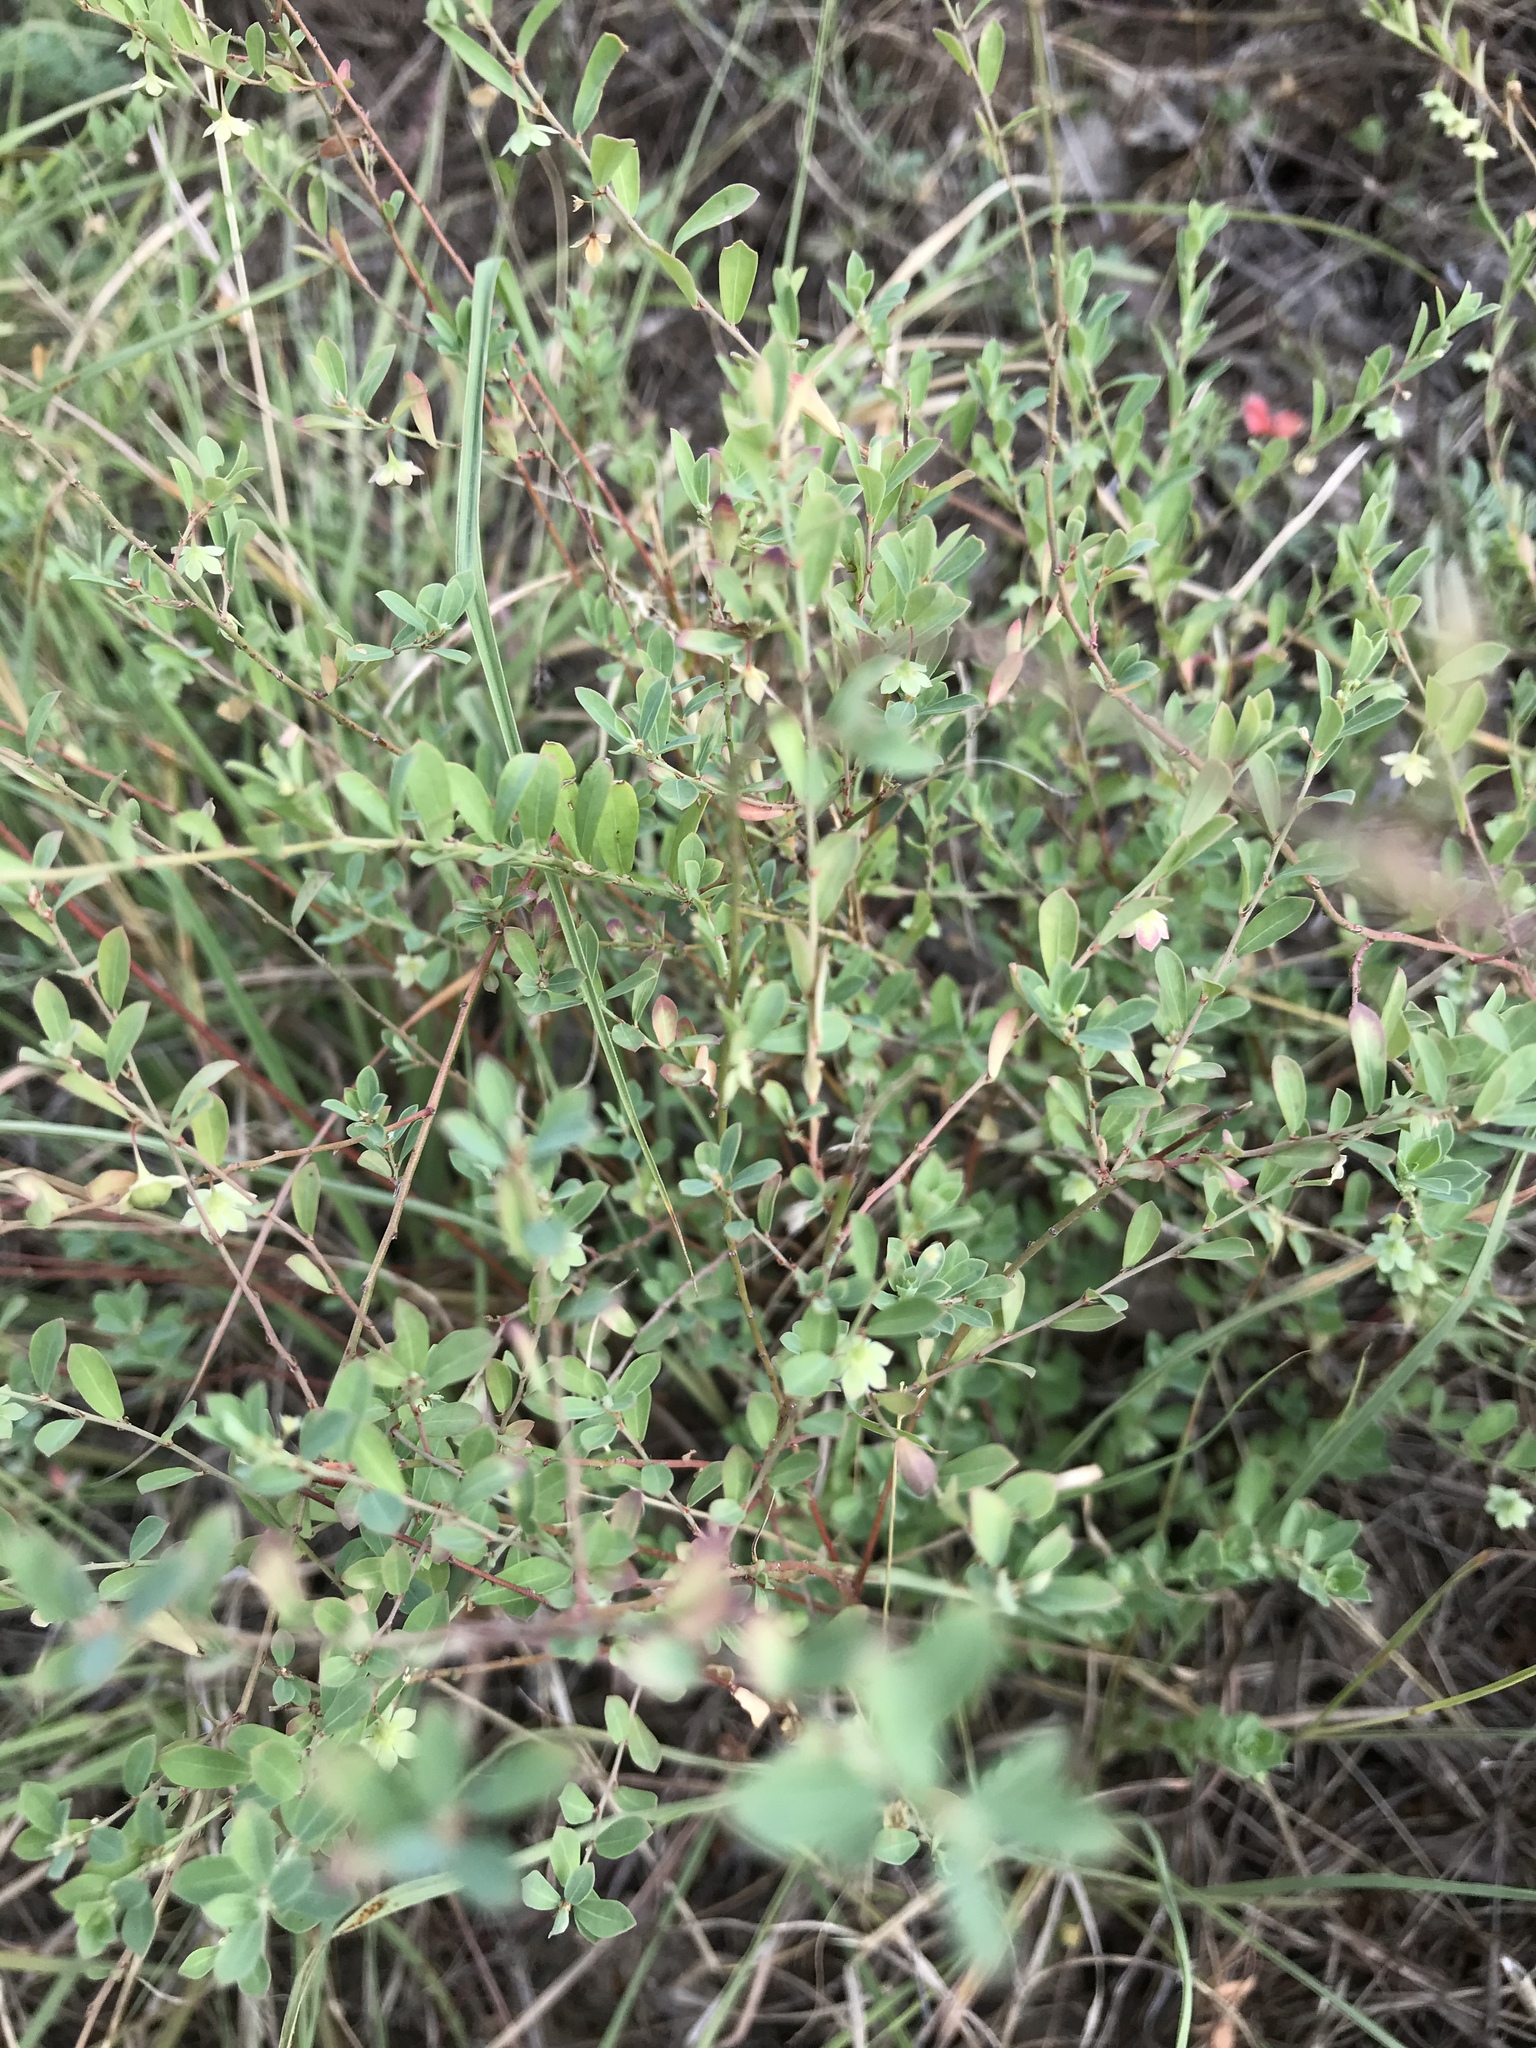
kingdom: Plantae
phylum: Tracheophyta
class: Magnoliopsida
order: Malpighiales
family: Phyllanthaceae
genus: Phyllanthus
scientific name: Phyllanthus polygonoides
